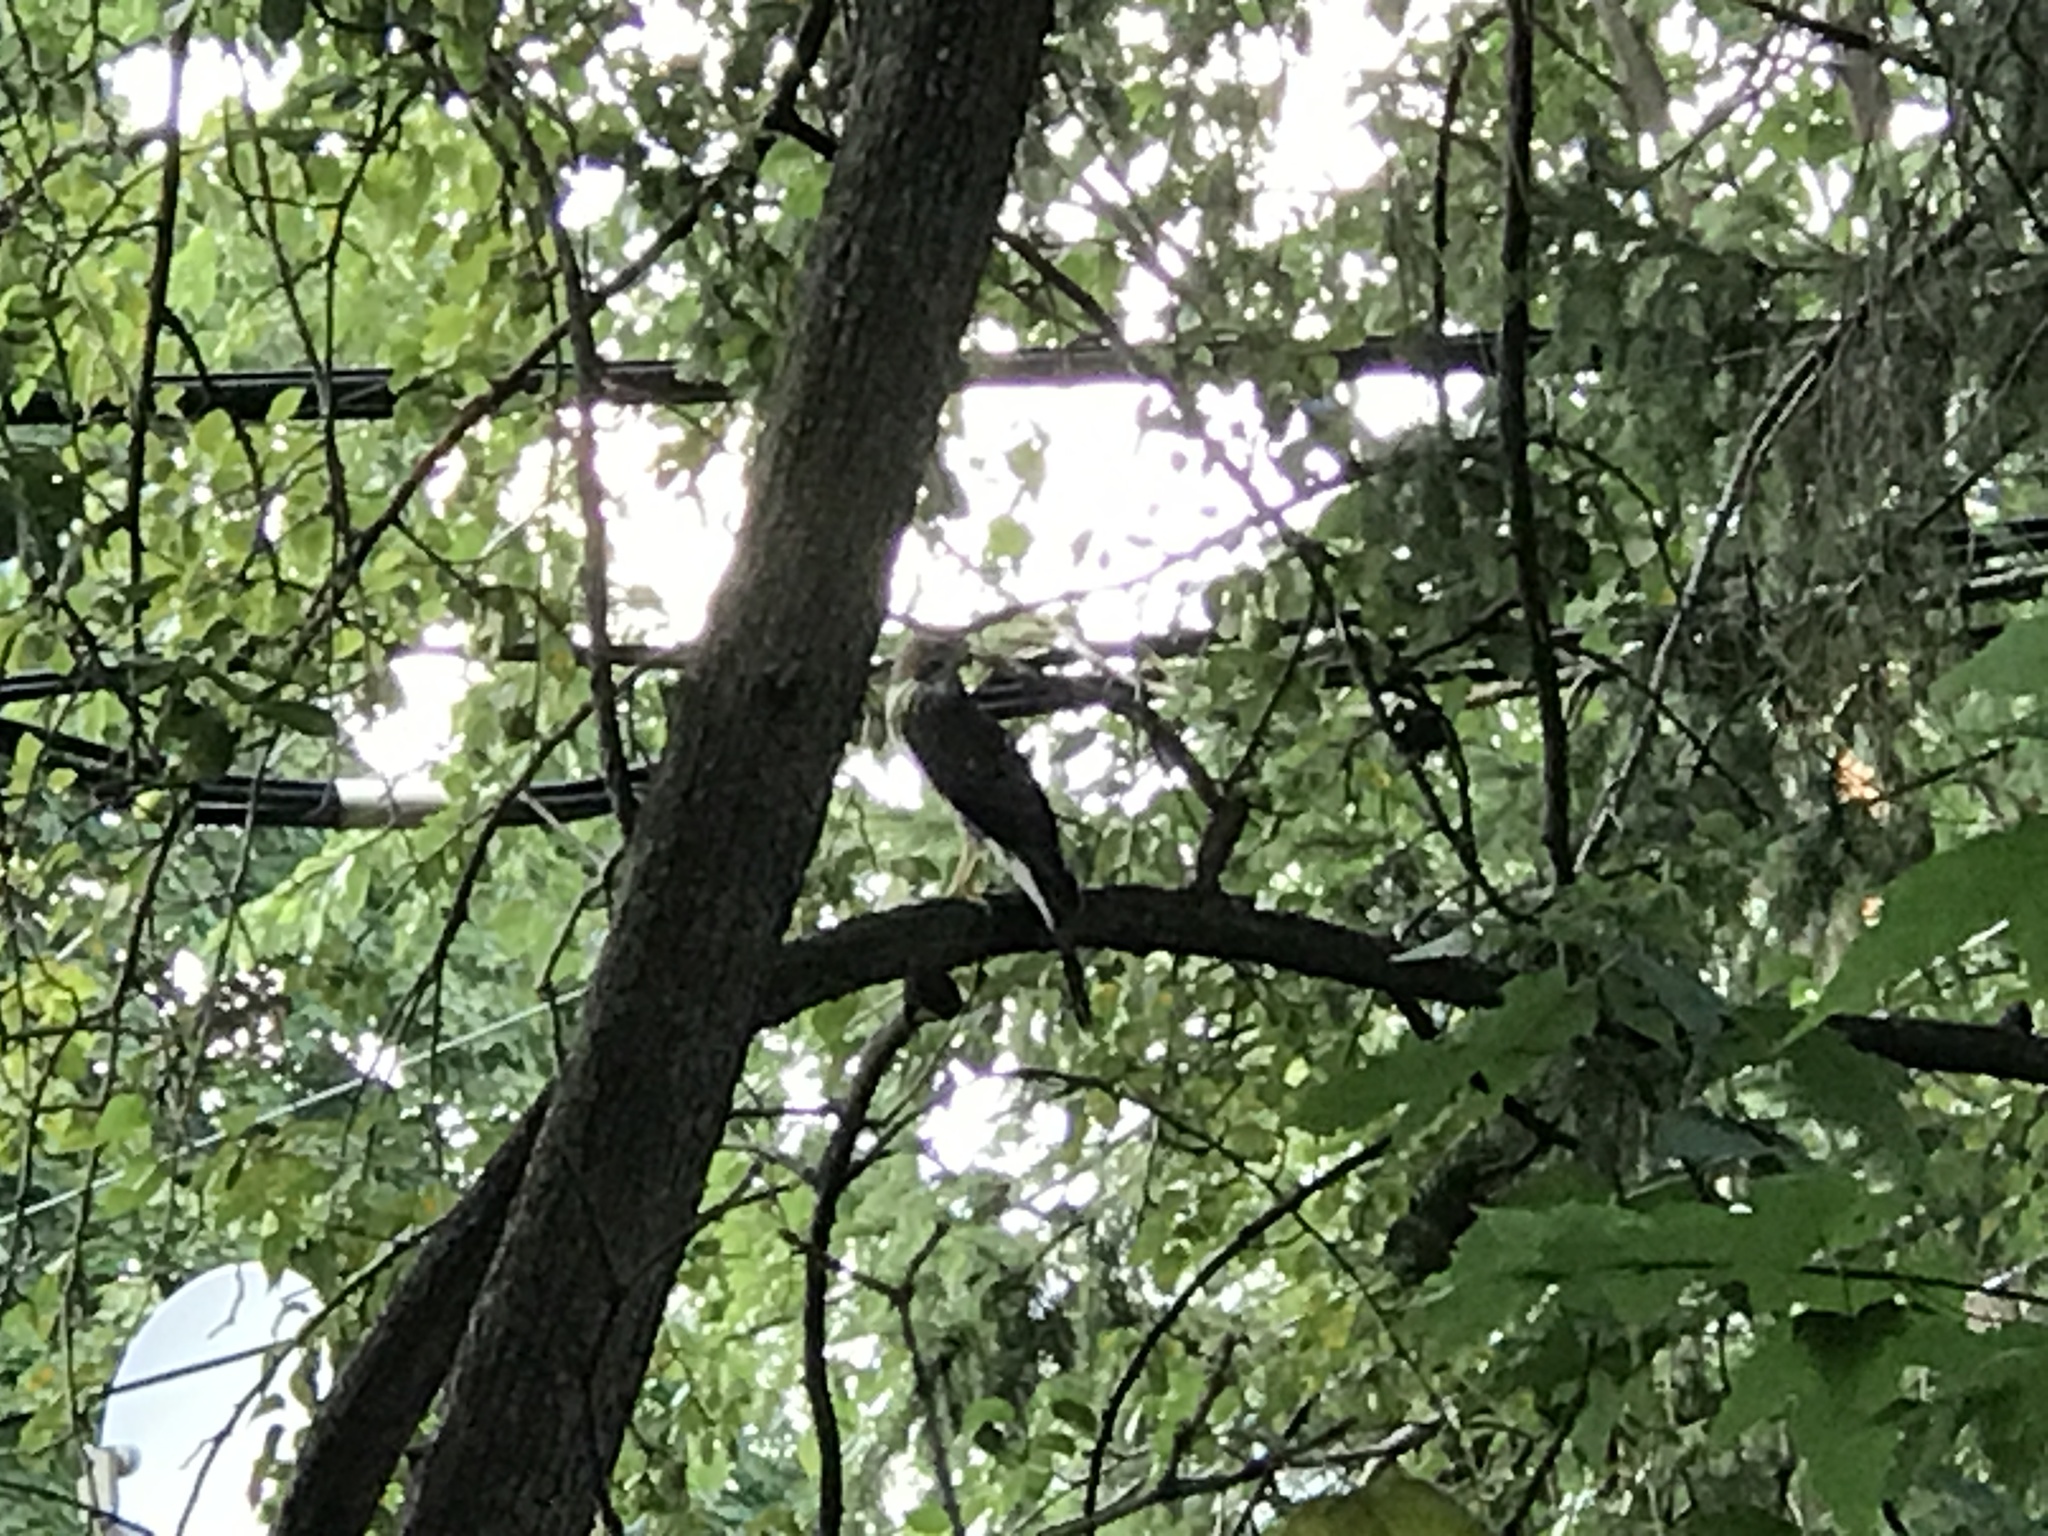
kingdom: Animalia
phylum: Chordata
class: Aves
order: Accipitriformes
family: Accipitridae
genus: Accipiter
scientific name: Accipiter cooperii
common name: Cooper's hawk
